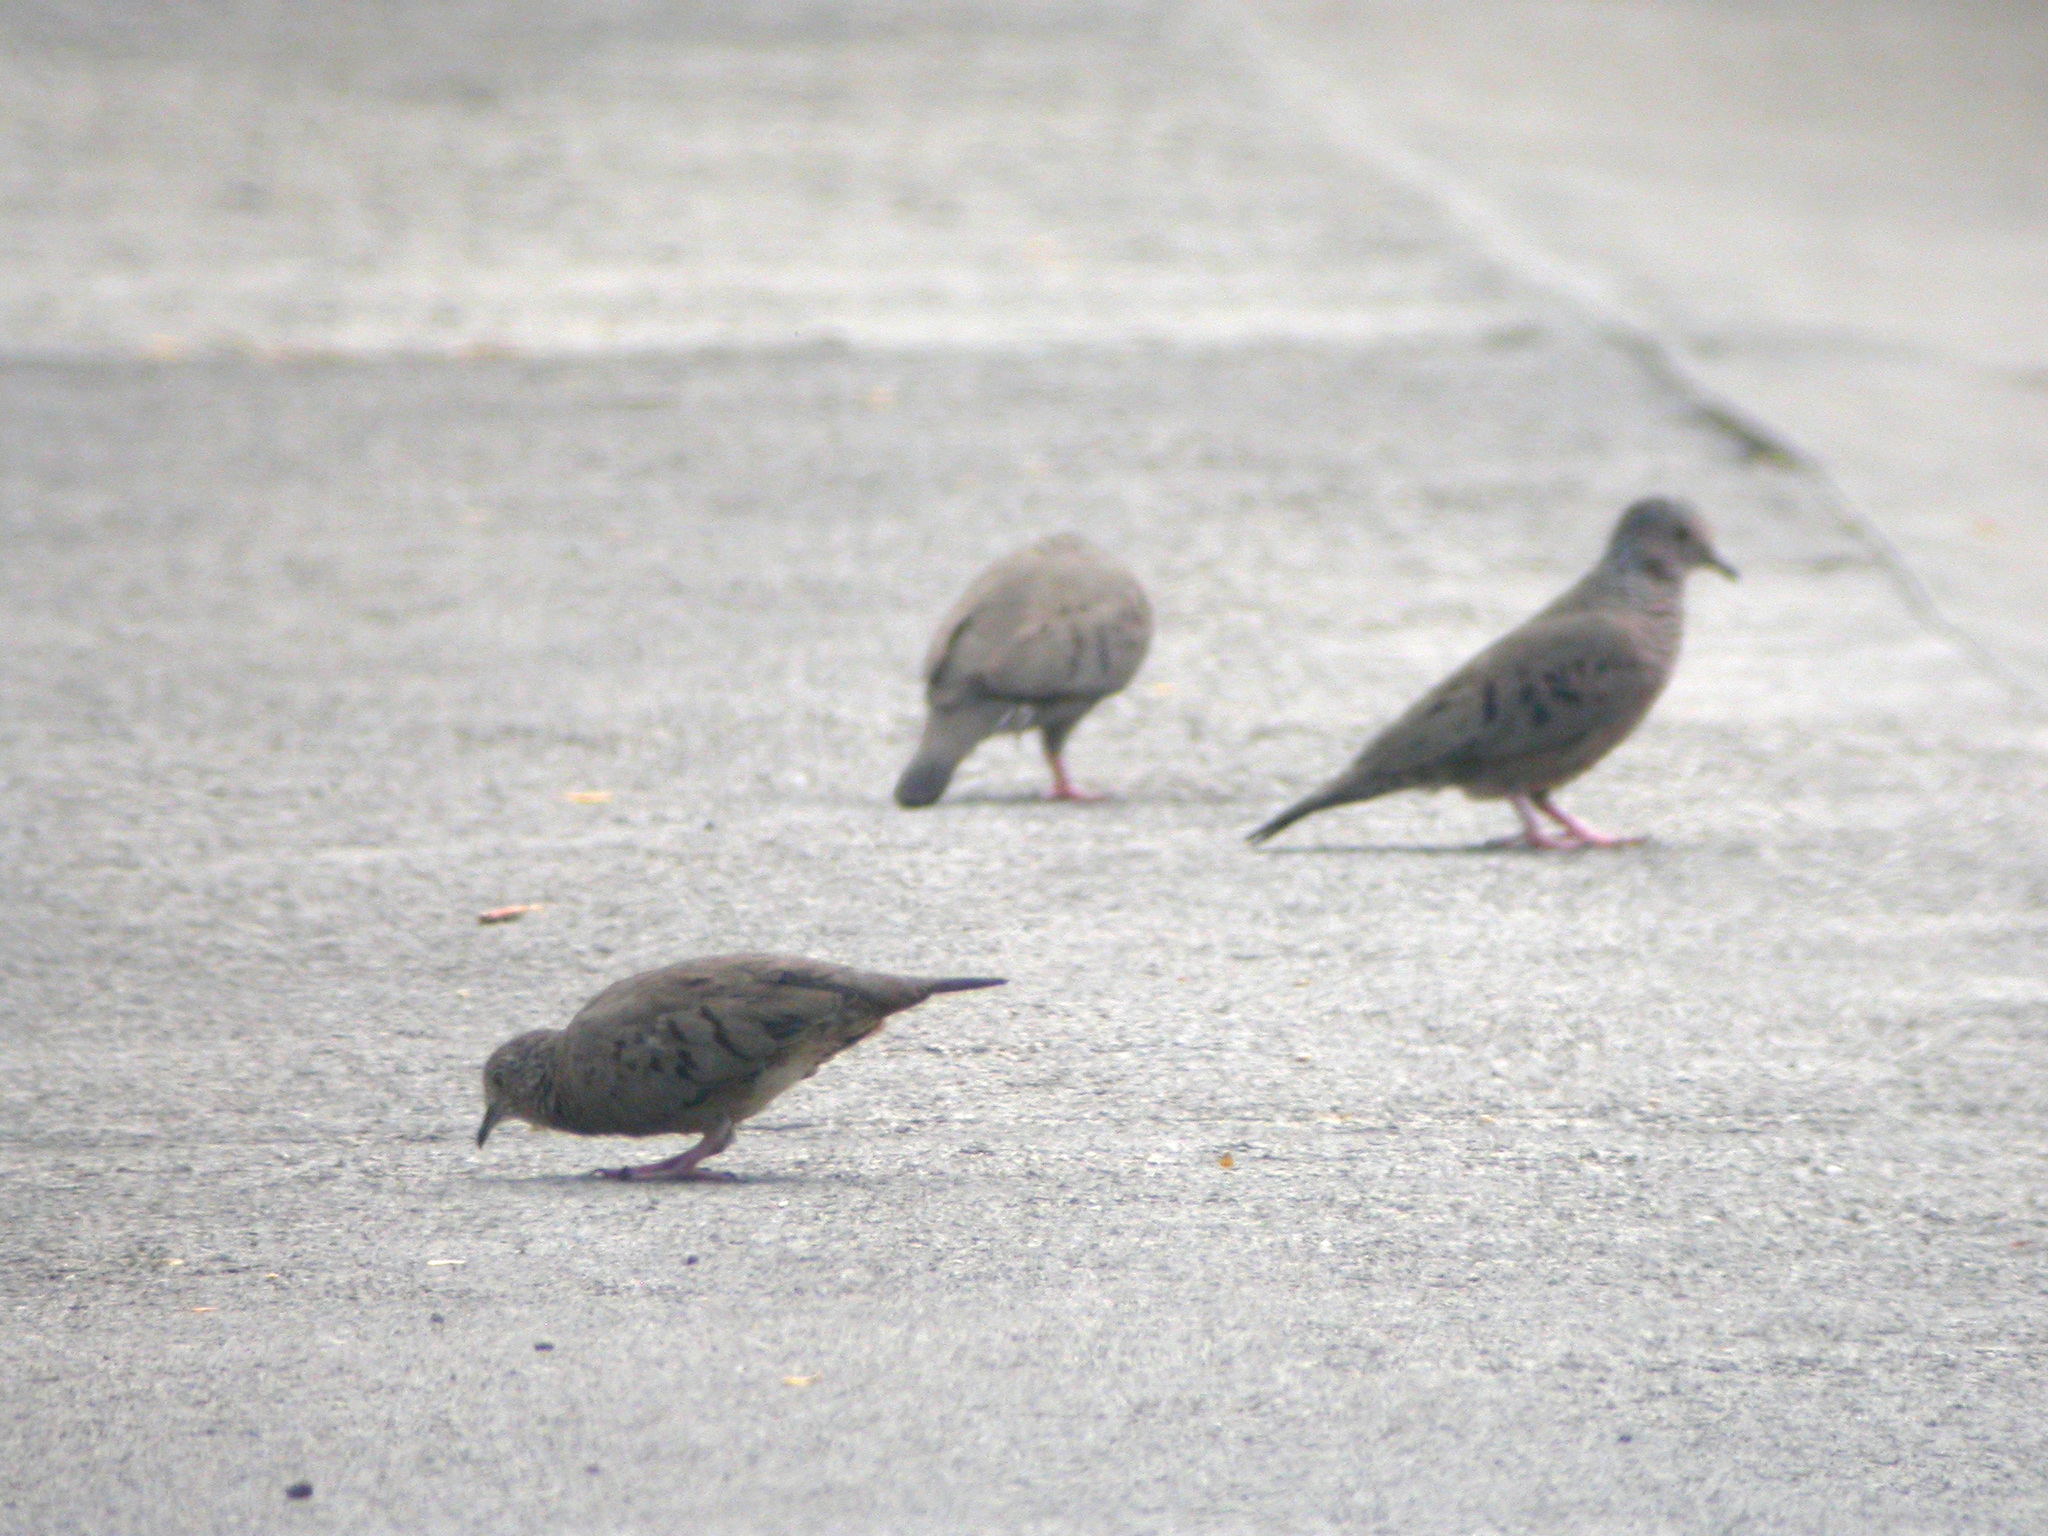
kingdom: Animalia
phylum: Chordata
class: Aves
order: Columbiformes
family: Columbidae
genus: Columbina
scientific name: Columbina passerina
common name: Common ground-dove
